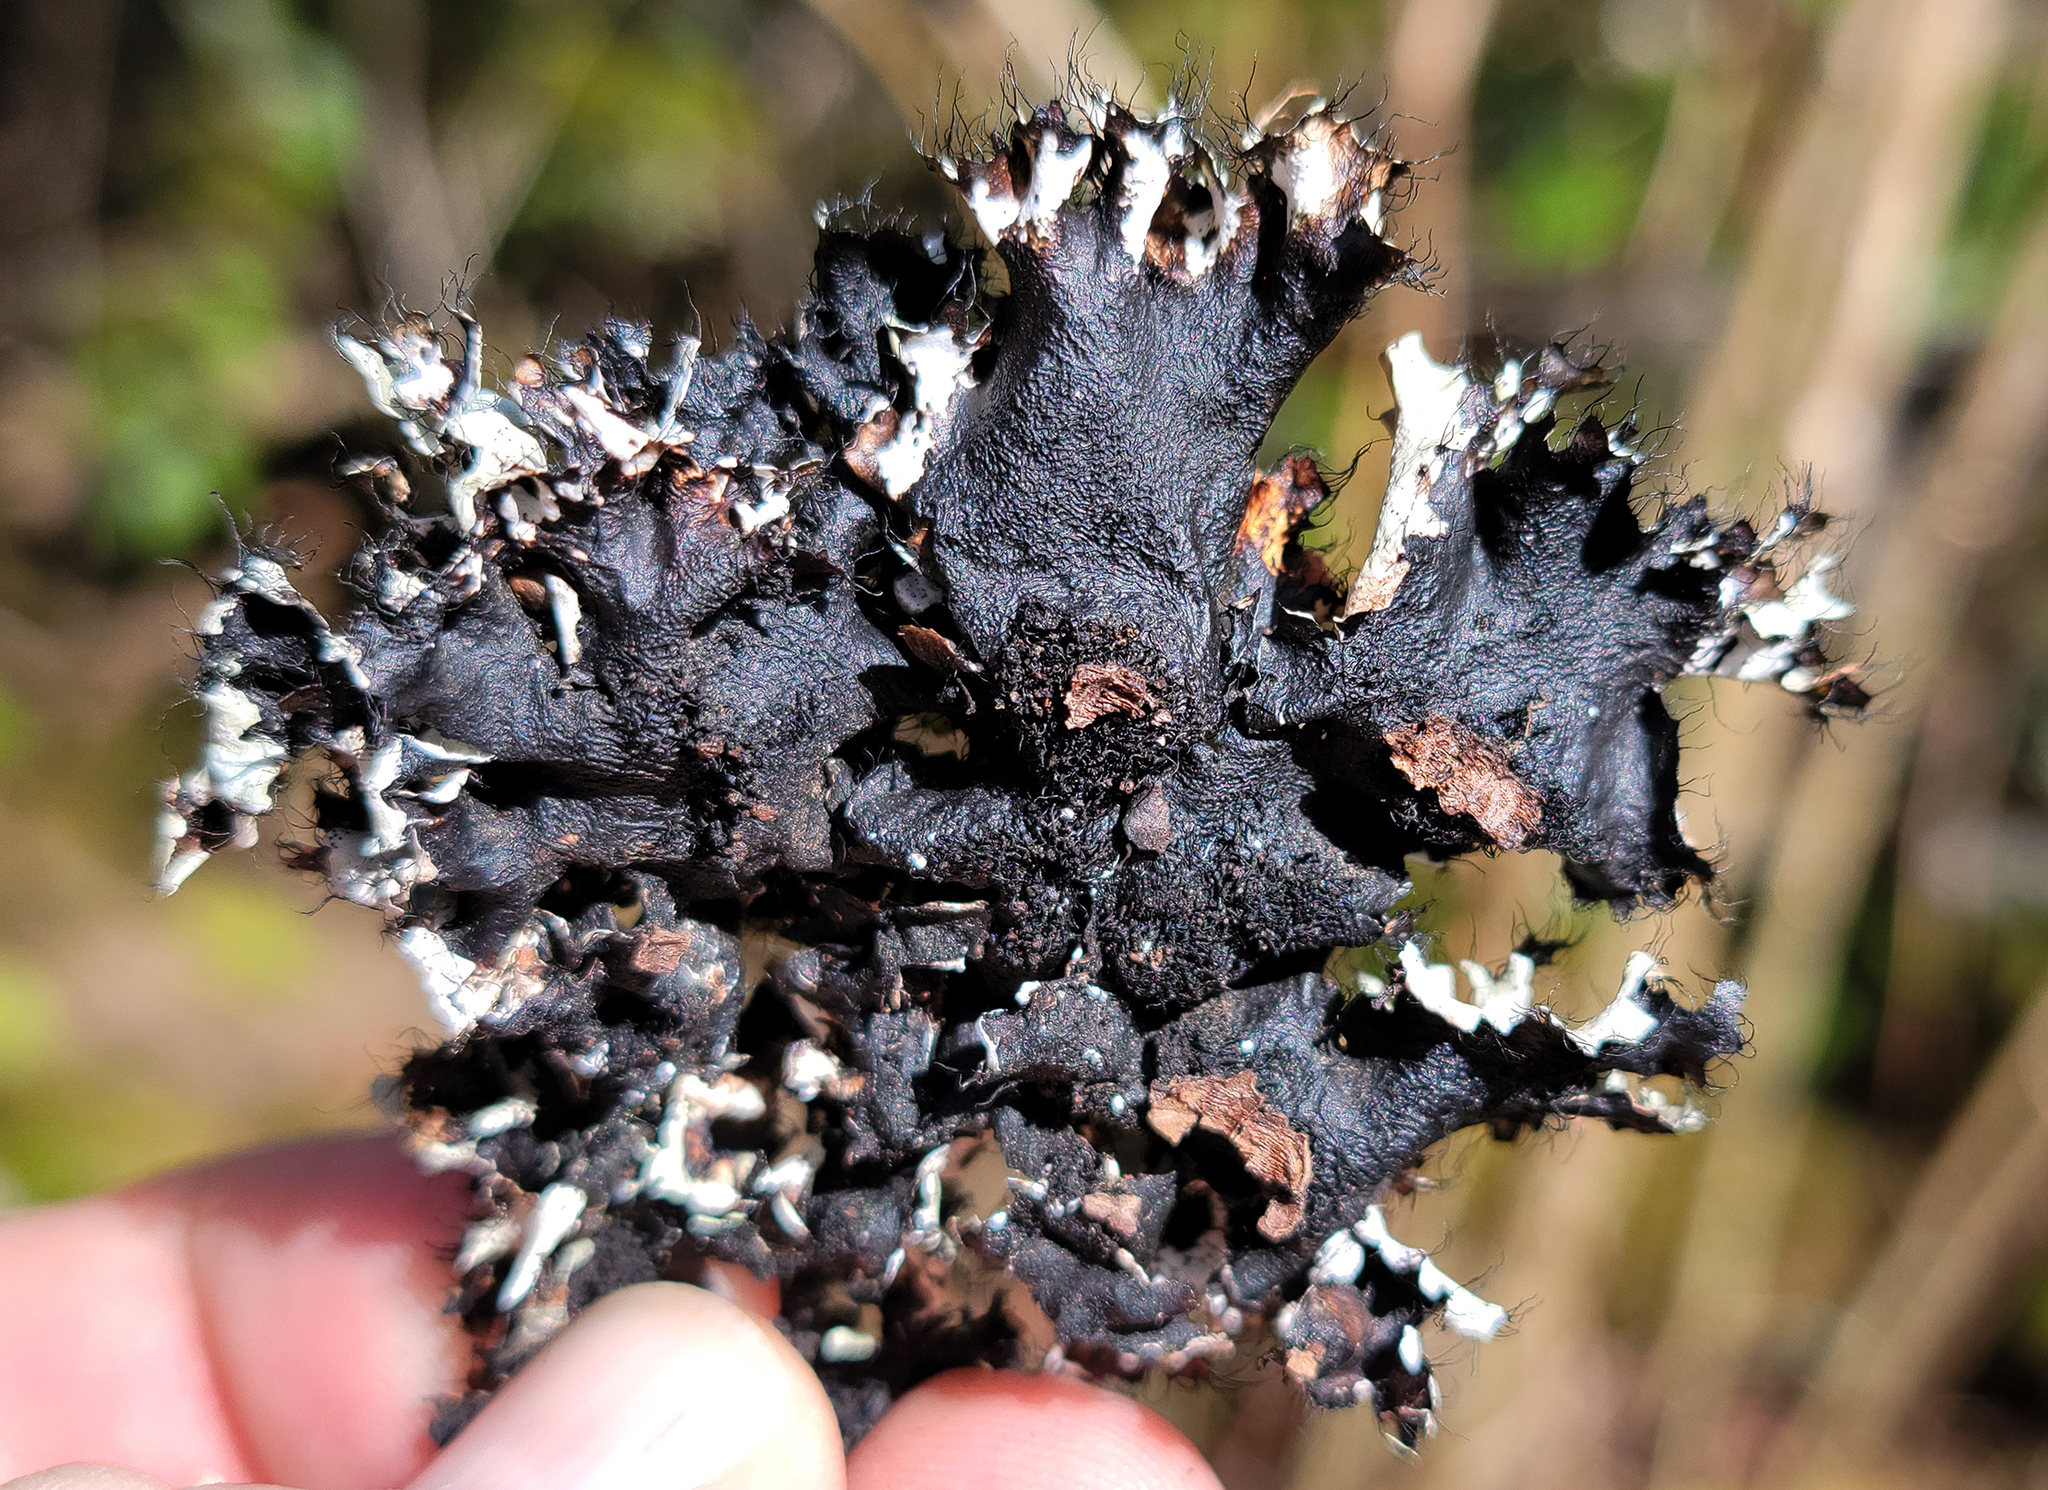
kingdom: Fungi
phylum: Ascomycota
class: Lecanoromycetes
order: Lecanorales
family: Parmeliaceae
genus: Parmotrema
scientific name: Parmotrema perforatum
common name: Perforated ruffle lichen
